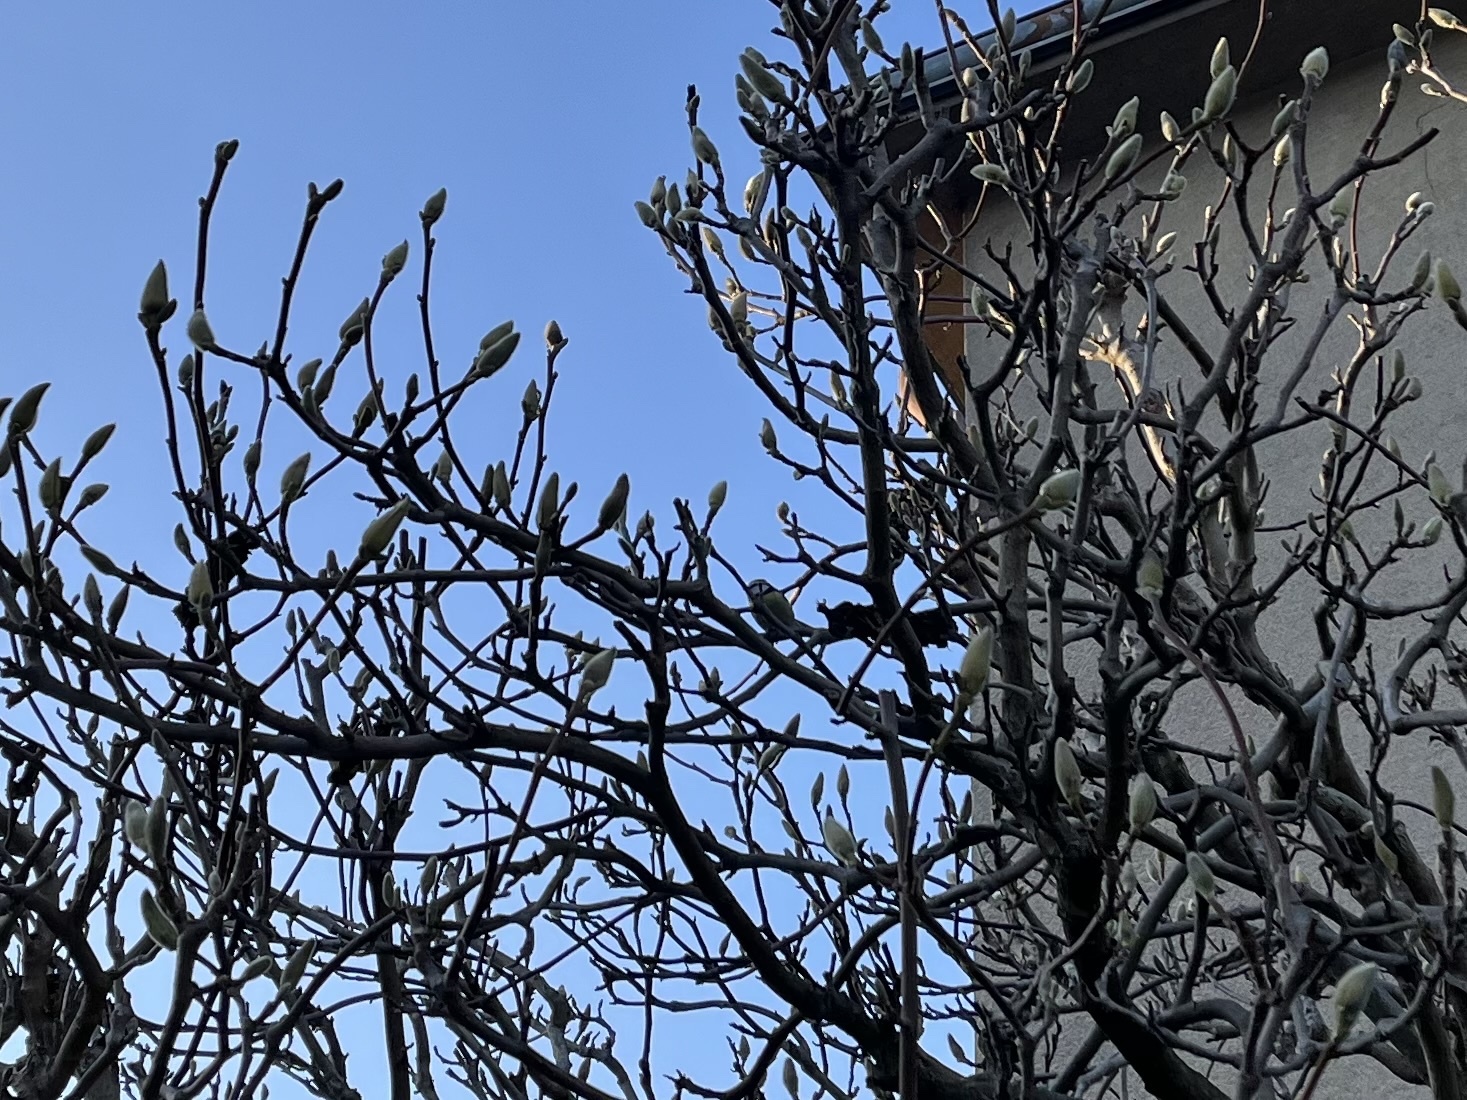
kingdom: Animalia
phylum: Chordata
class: Aves
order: Passeriformes
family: Paridae
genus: Cyanistes
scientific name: Cyanistes caeruleus
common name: Eurasian blue tit
